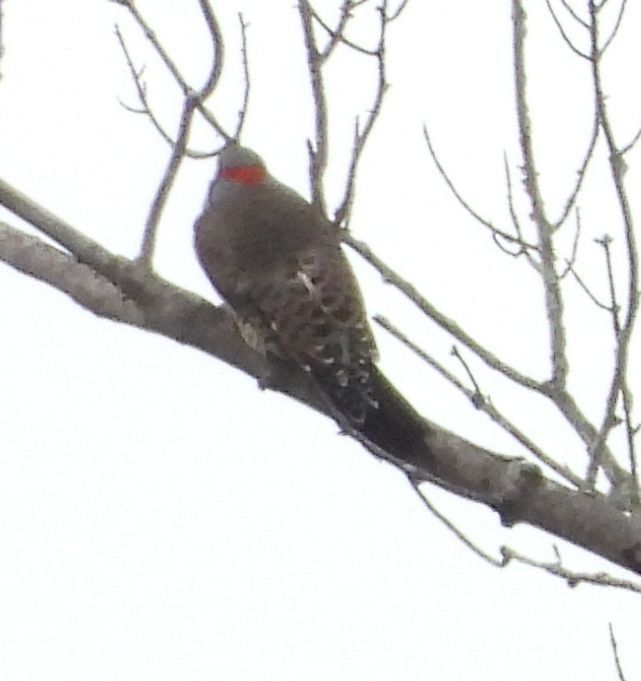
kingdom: Animalia
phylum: Chordata
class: Aves
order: Piciformes
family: Picidae
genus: Colaptes
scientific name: Colaptes auratus
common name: Northern flicker
